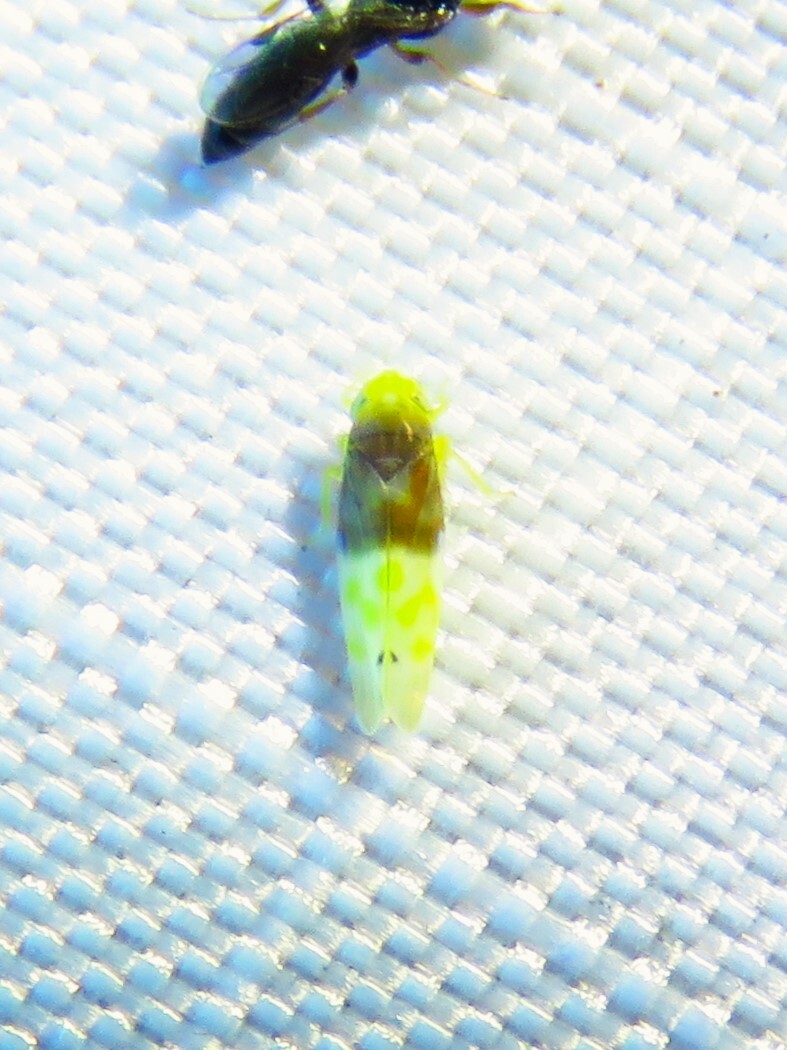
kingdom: Animalia
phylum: Arthropoda
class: Insecta
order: Hemiptera
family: Cicadellidae
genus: Eratoneura
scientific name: Eratoneura basilaris
